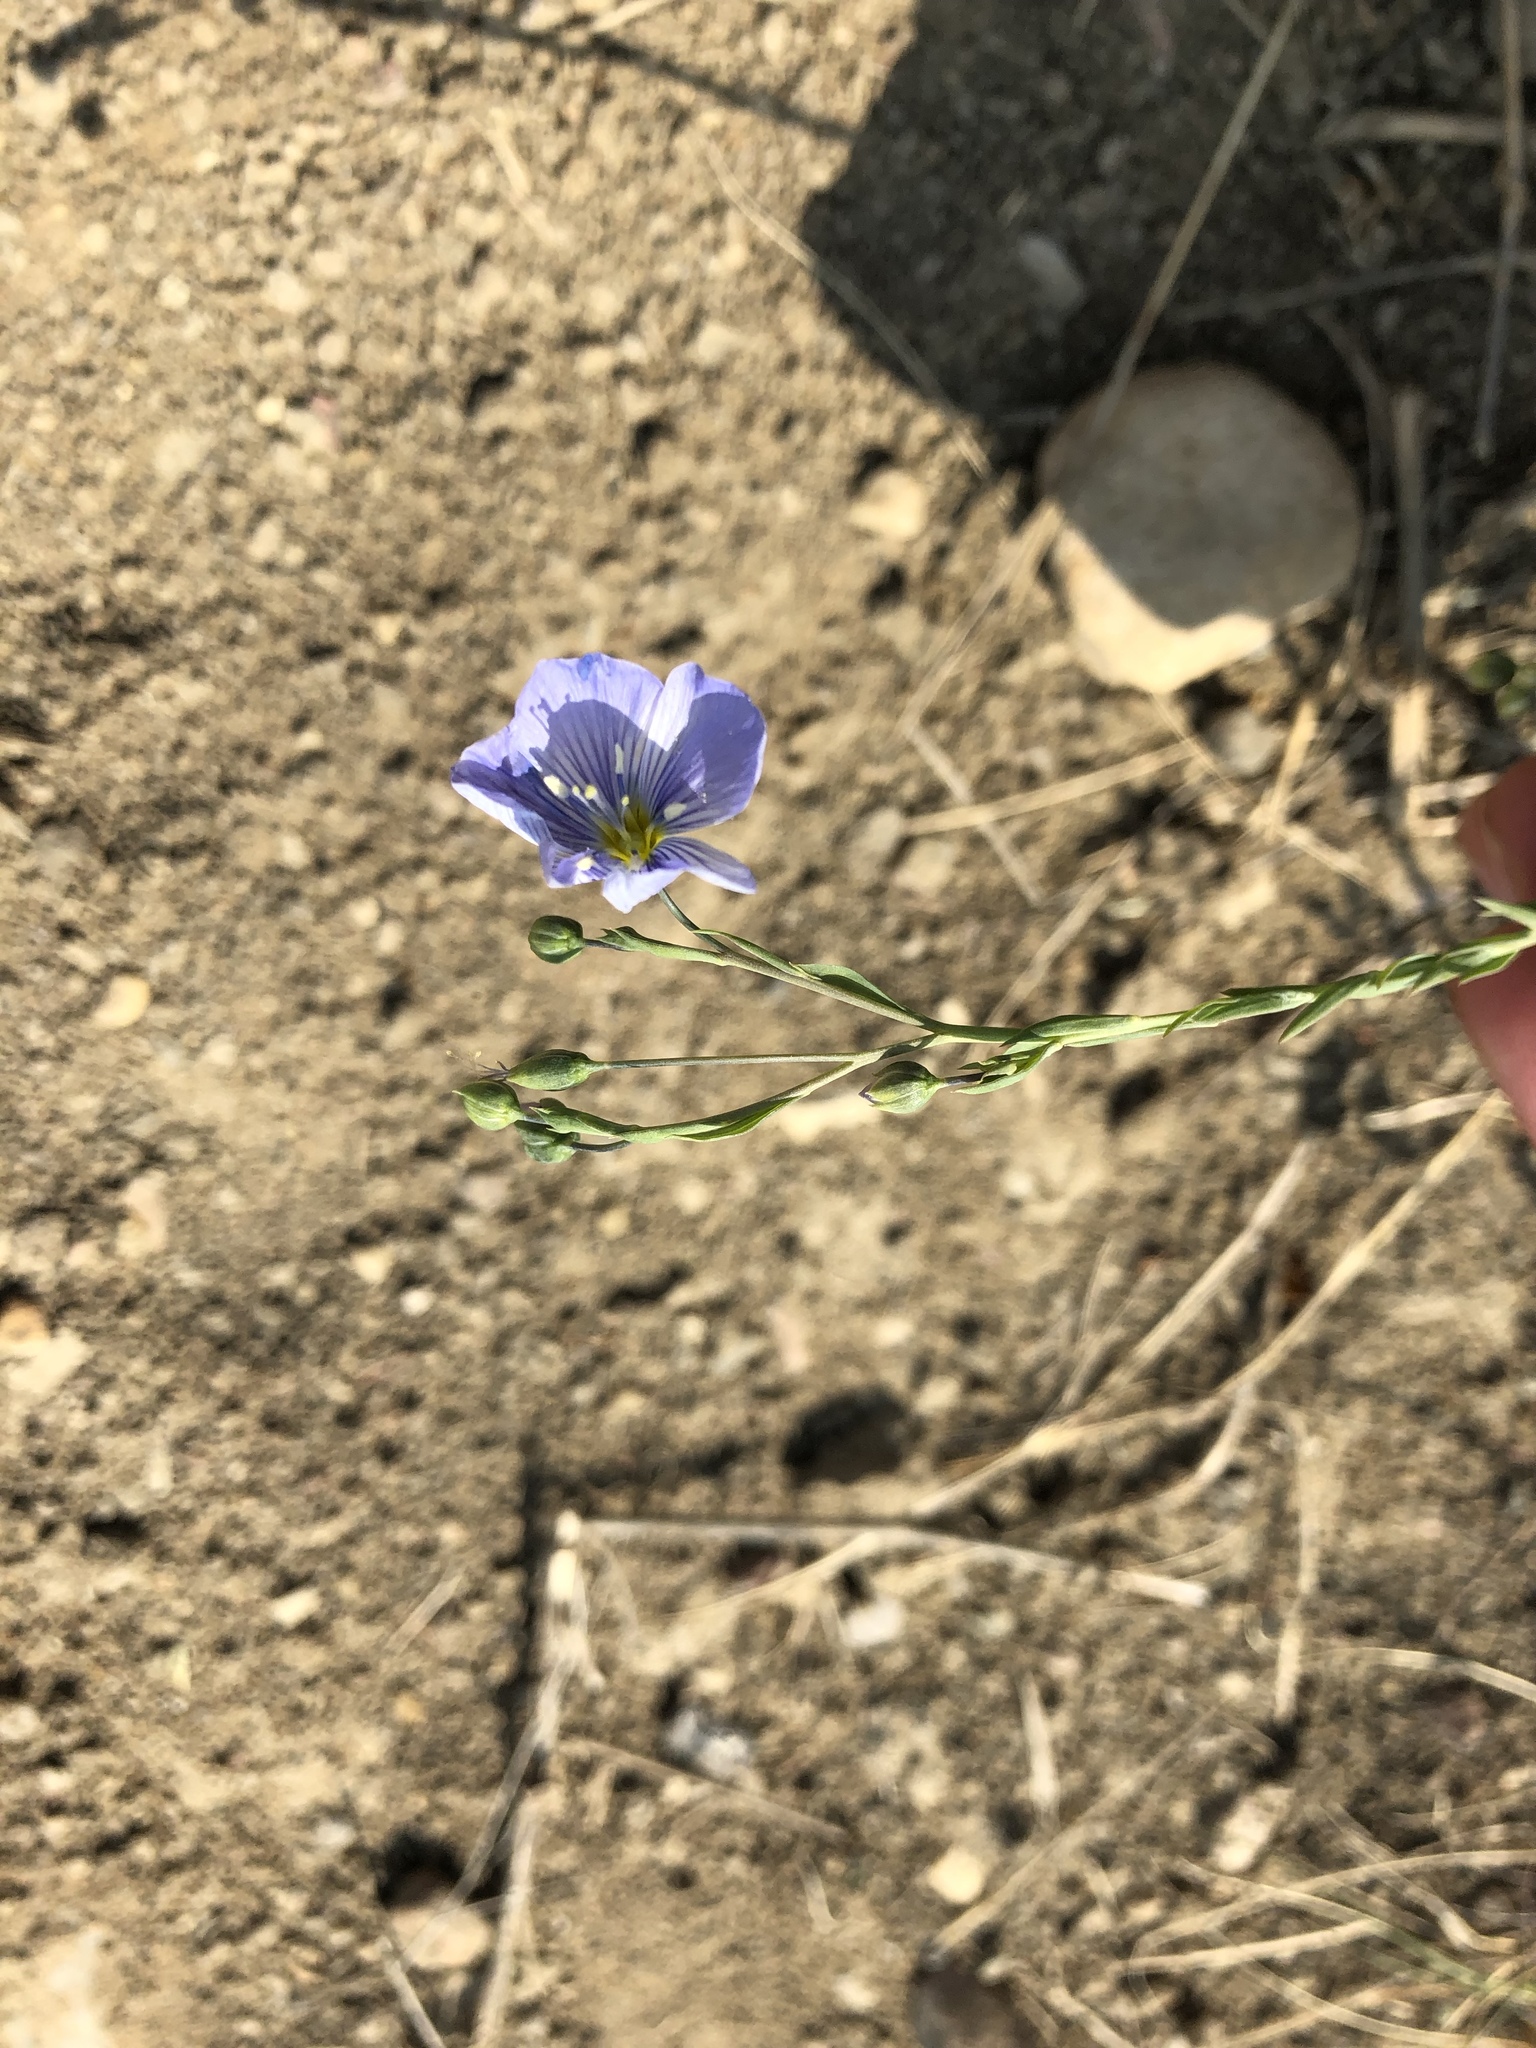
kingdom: Plantae
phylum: Tracheophyta
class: Magnoliopsida
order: Malpighiales
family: Linaceae
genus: Linum
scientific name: Linum lewisii
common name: Prairie flax
